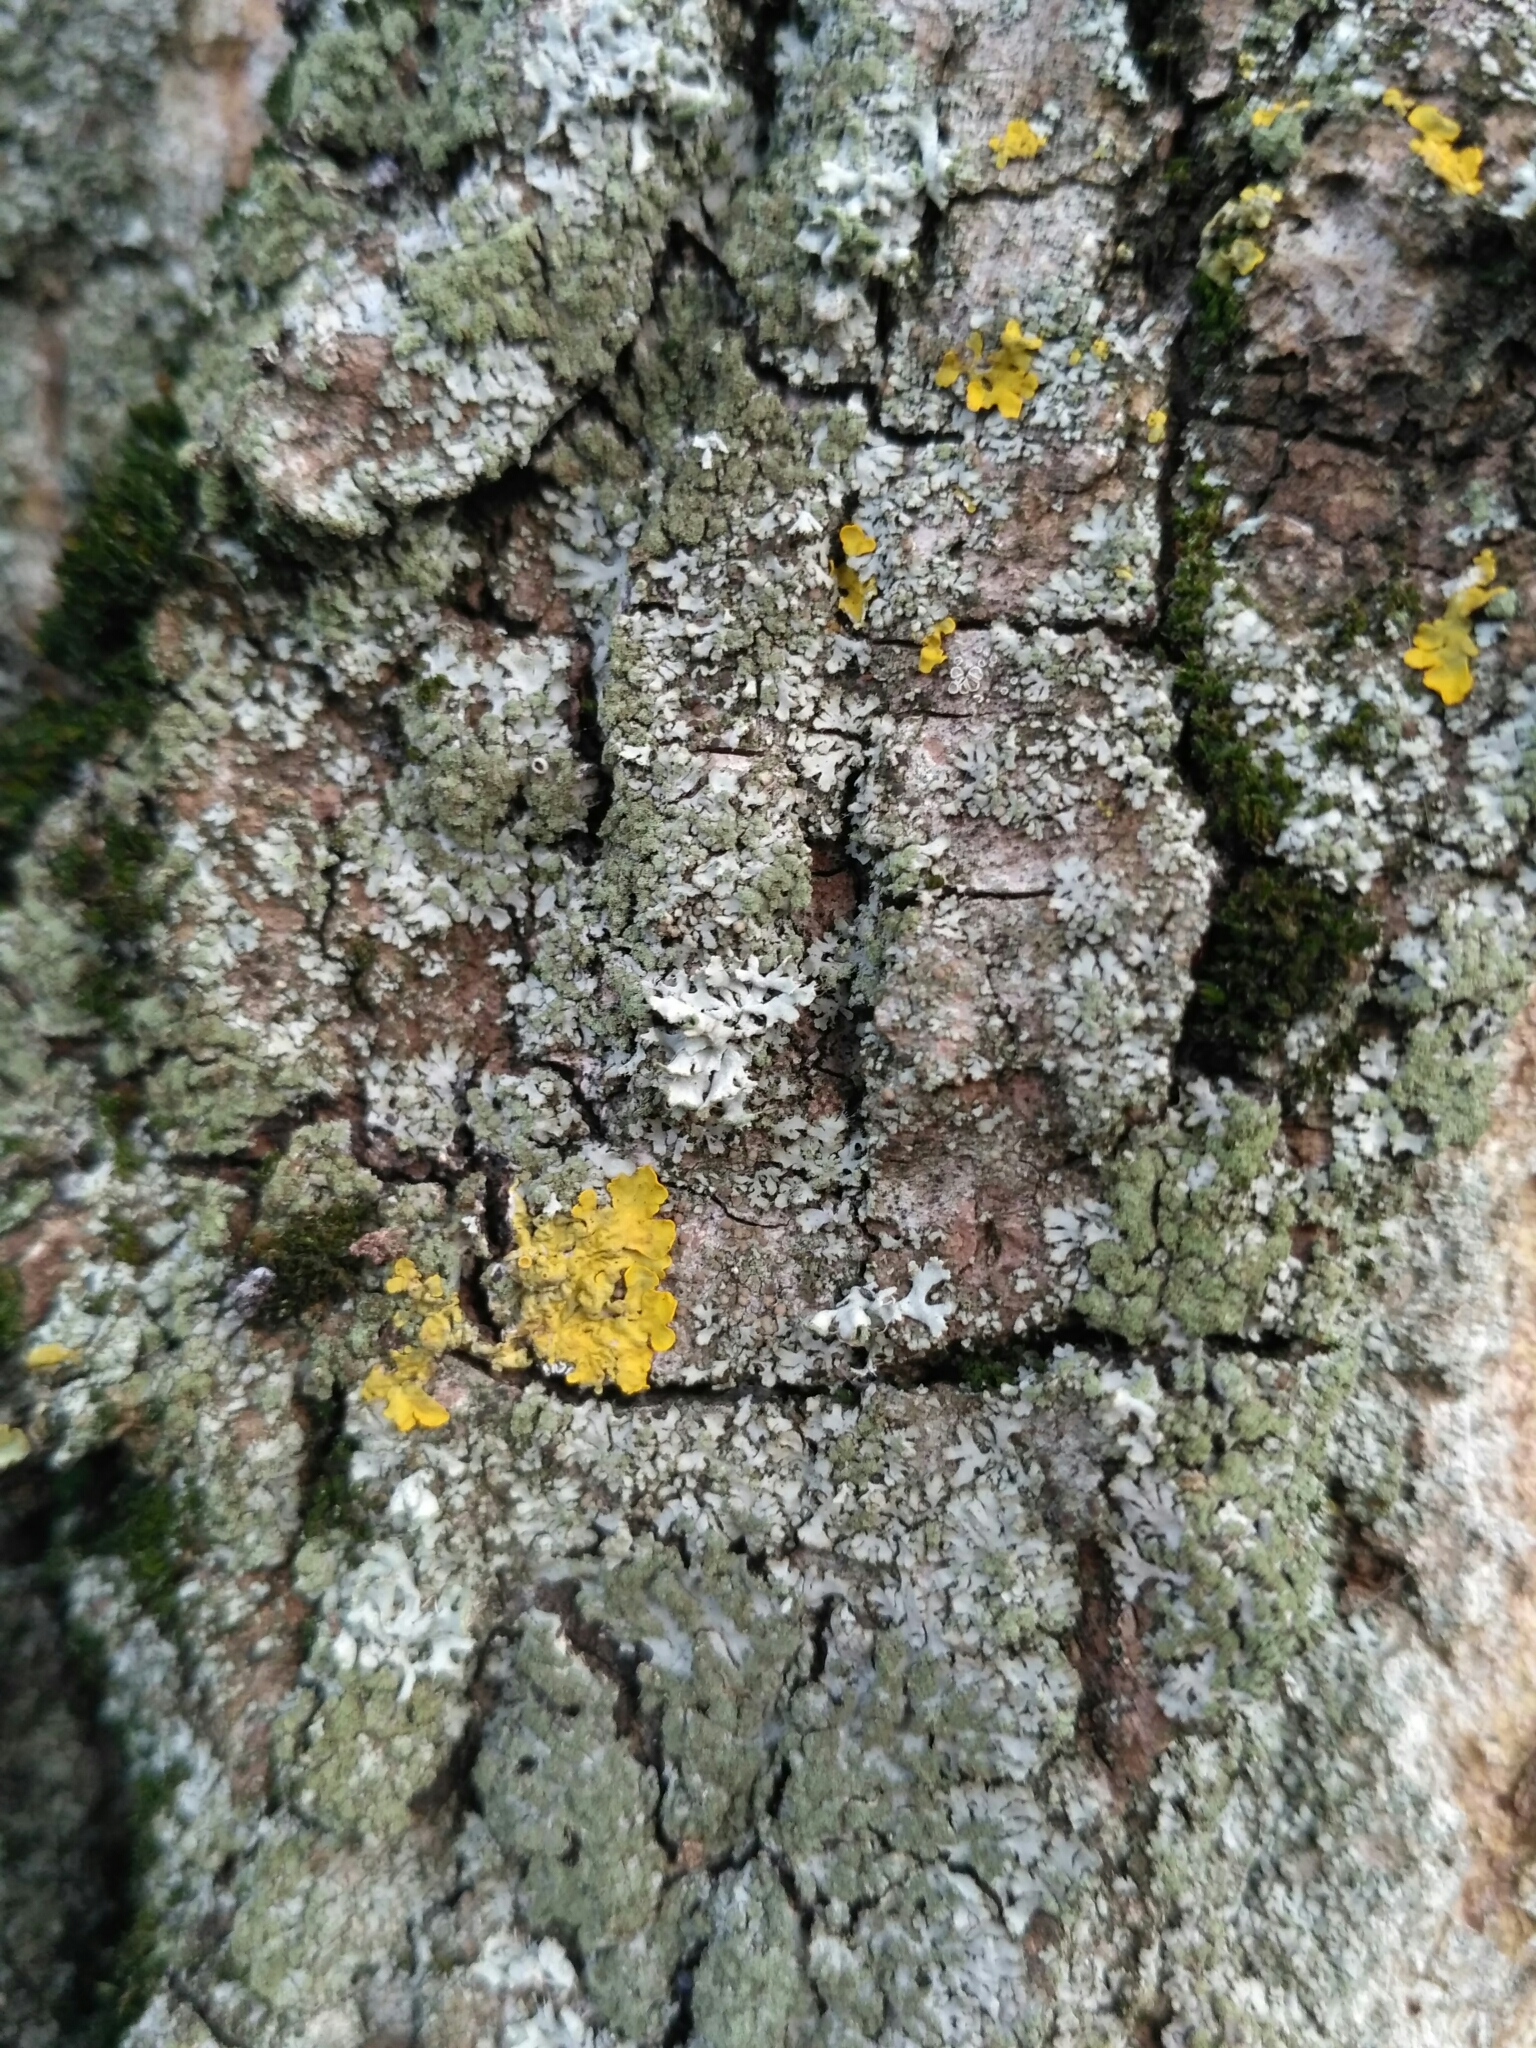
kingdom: Fungi
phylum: Ascomycota
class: Lecanoromycetes
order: Caliciales
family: Physciaceae
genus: Physcia
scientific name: Physcia tenella
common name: Fringed rosette lichen
